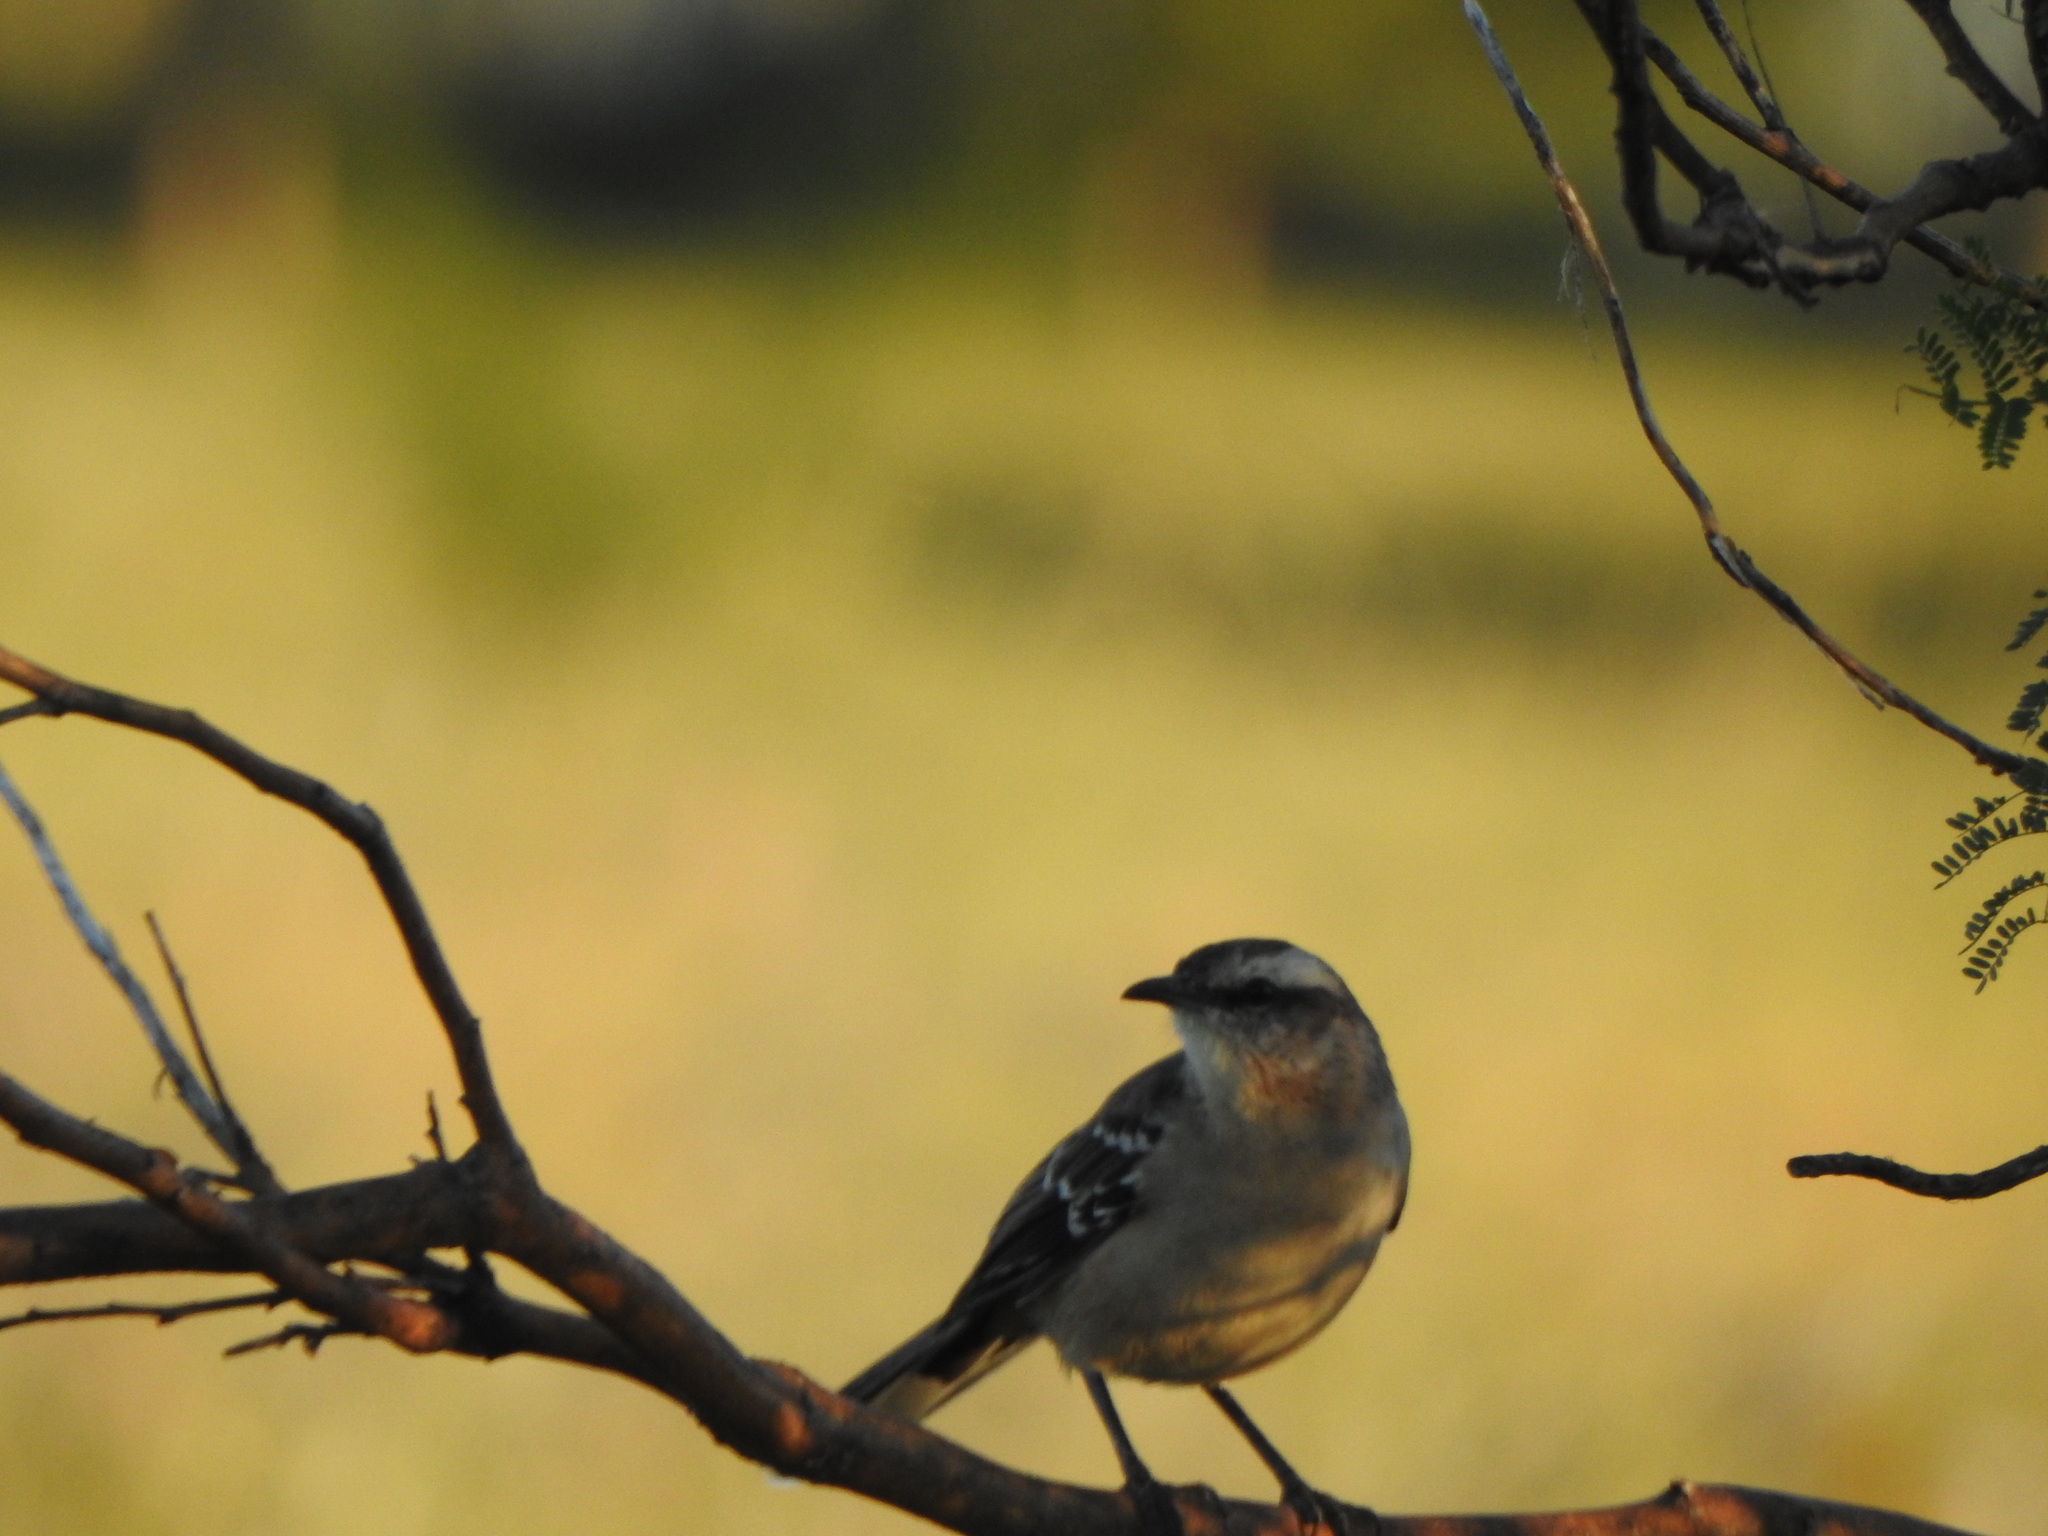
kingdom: Animalia
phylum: Chordata
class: Aves
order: Passeriformes
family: Mimidae
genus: Mimus
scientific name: Mimus saturninus
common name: Chalk-browed mockingbird
